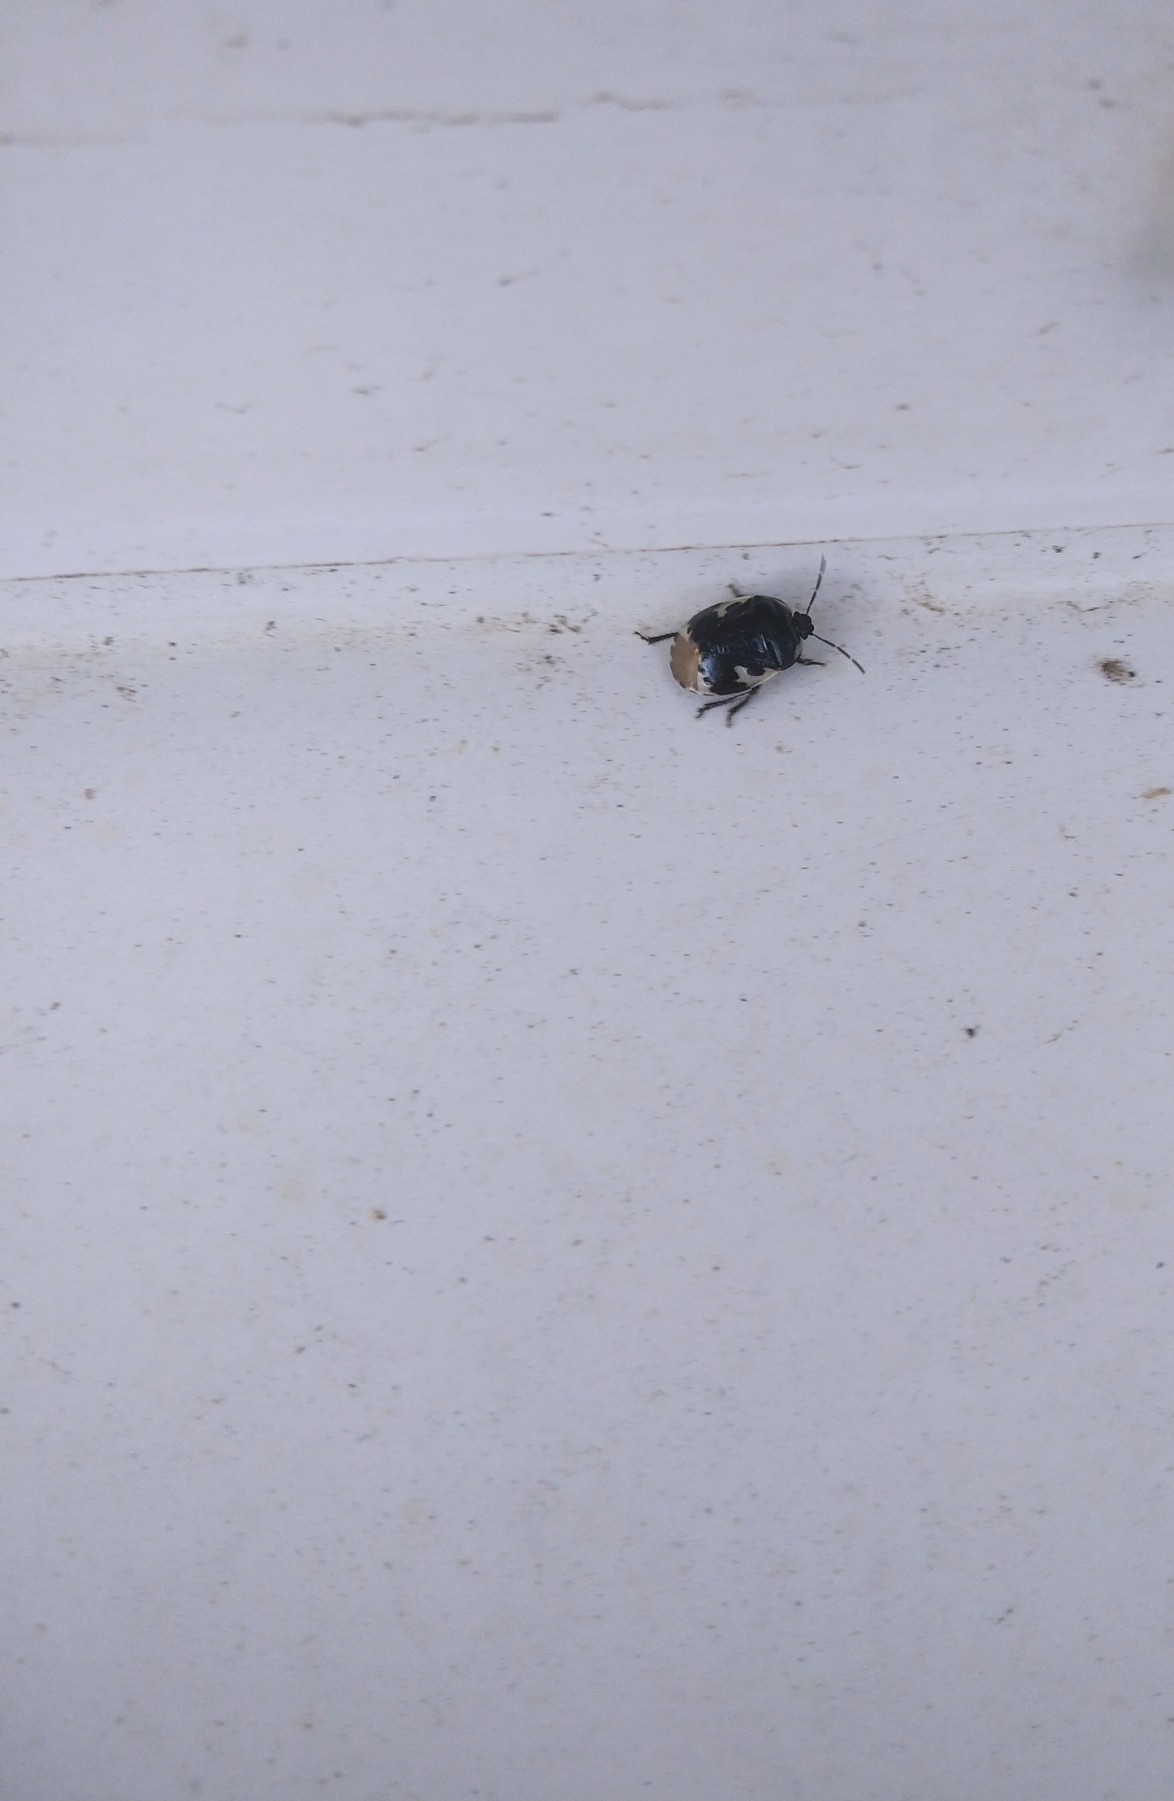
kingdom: Animalia
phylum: Arthropoda
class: Insecta
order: Hemiptera
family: Cydnidae
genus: Tritomegas
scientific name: Tritomegas bicolor
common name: Pied shieldbug
